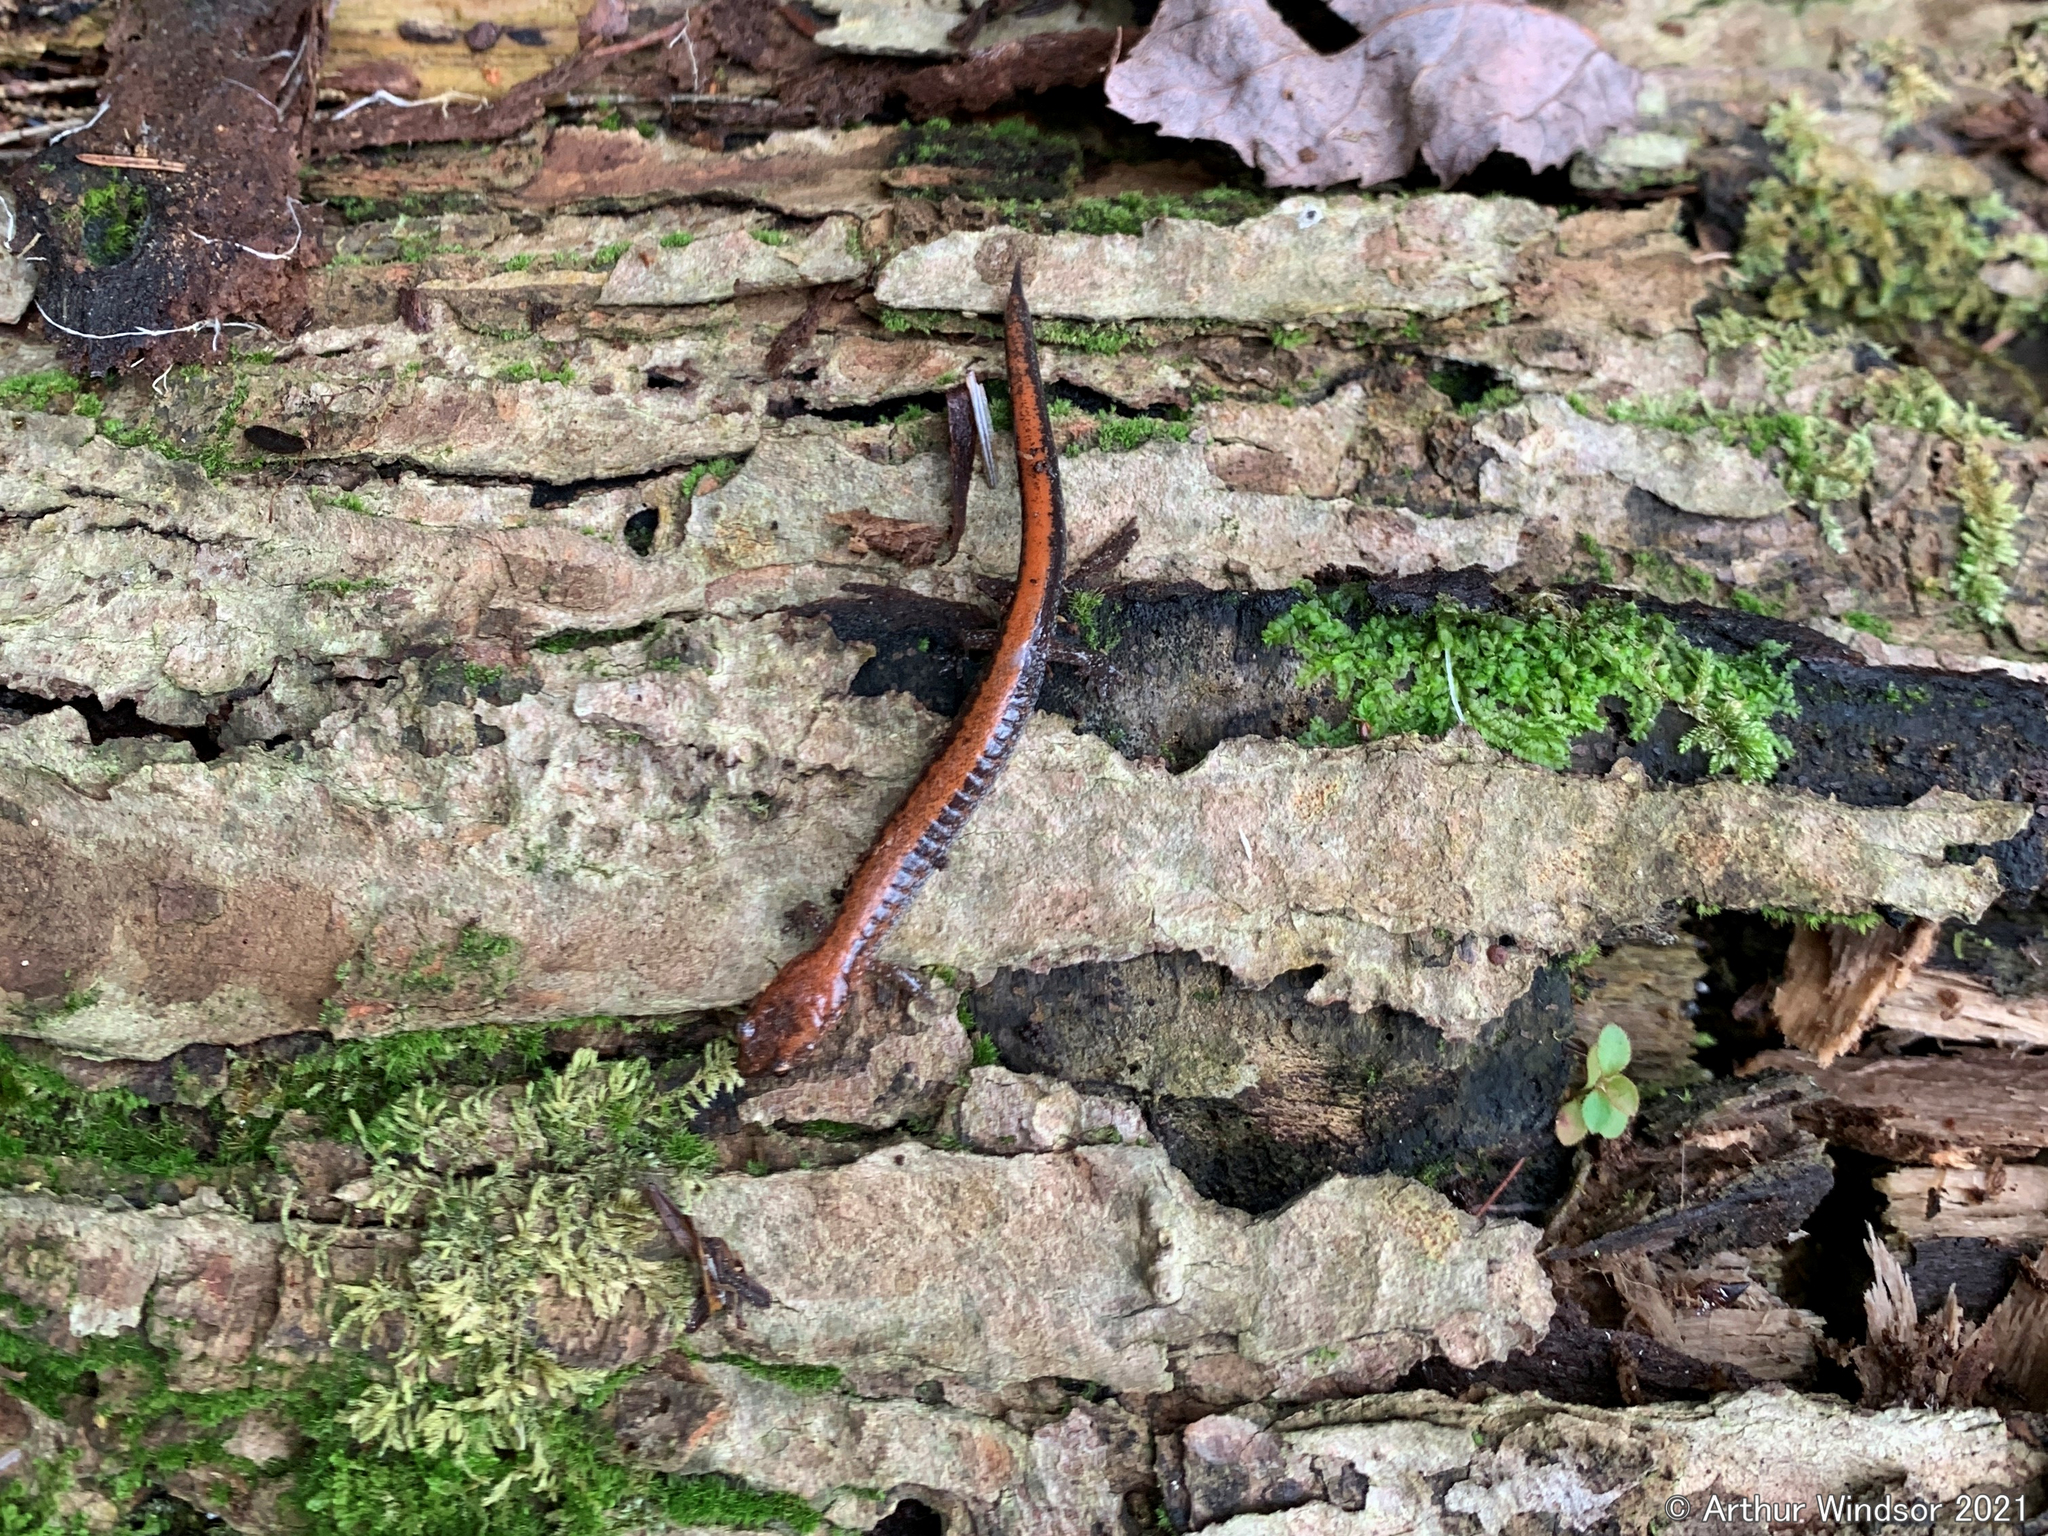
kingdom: Animalia
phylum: Chordata
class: Amphibia
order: Caudata
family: Plethodontidae
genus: Plethodon
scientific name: Plethodon cinereus
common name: Redback salamander
